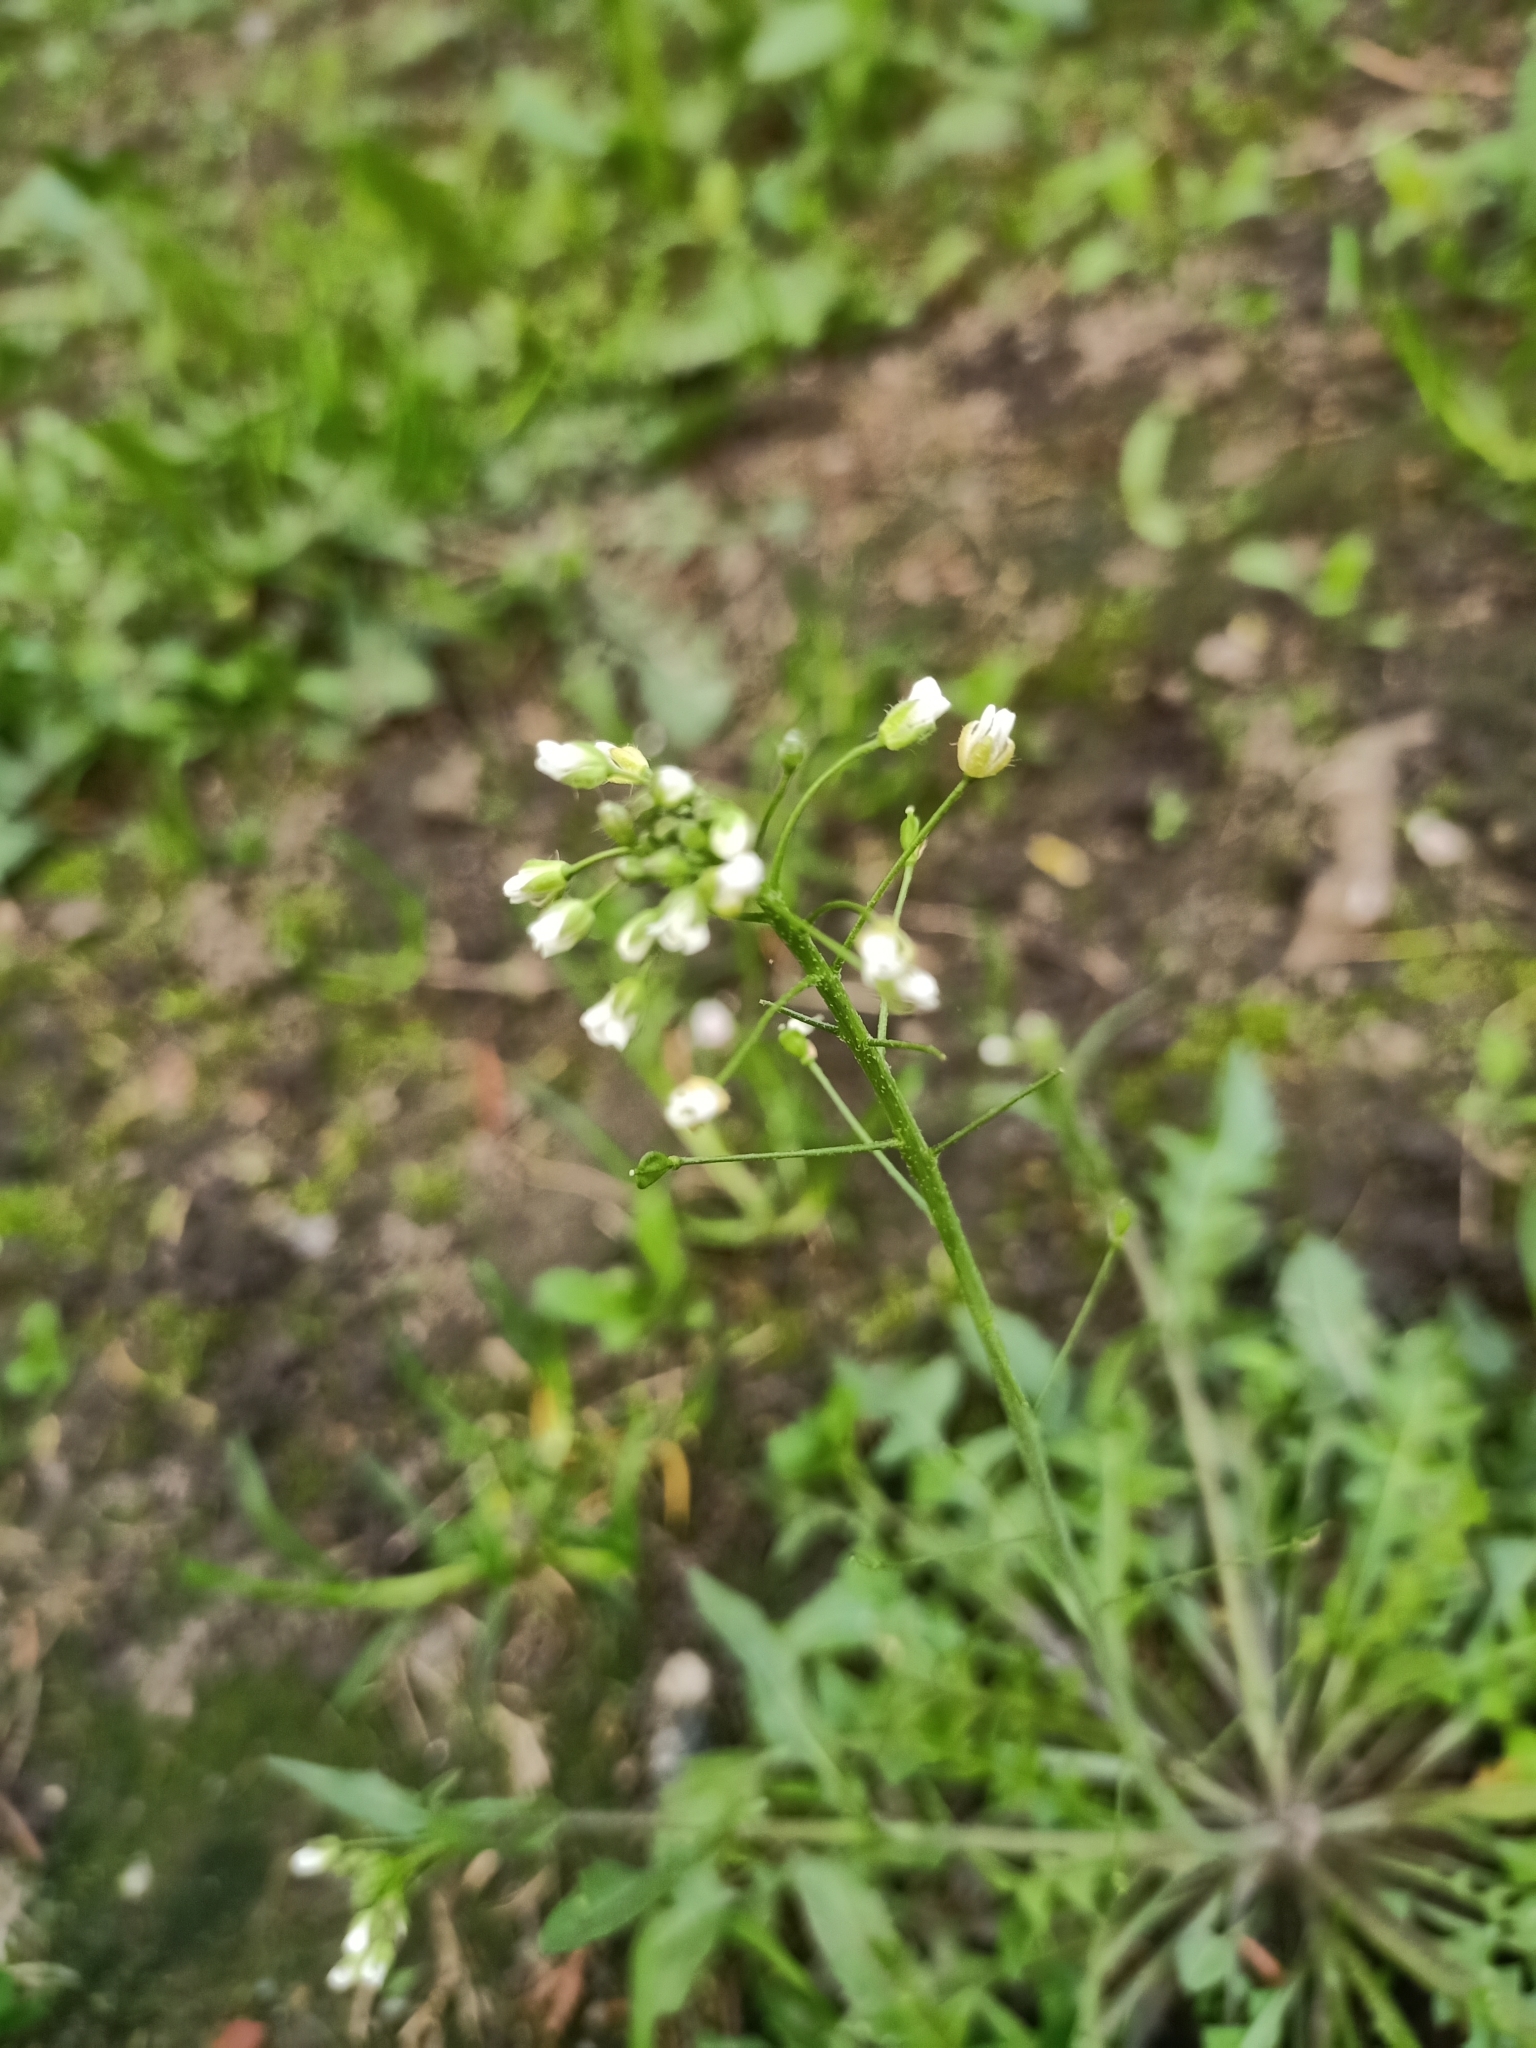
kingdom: Plantae
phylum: Tracheophyta
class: Magnoliopsida
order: Brassicales
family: Brassicaceae
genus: Capsella
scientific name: Capsella bursa-pastoris
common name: Shepherd's purse
